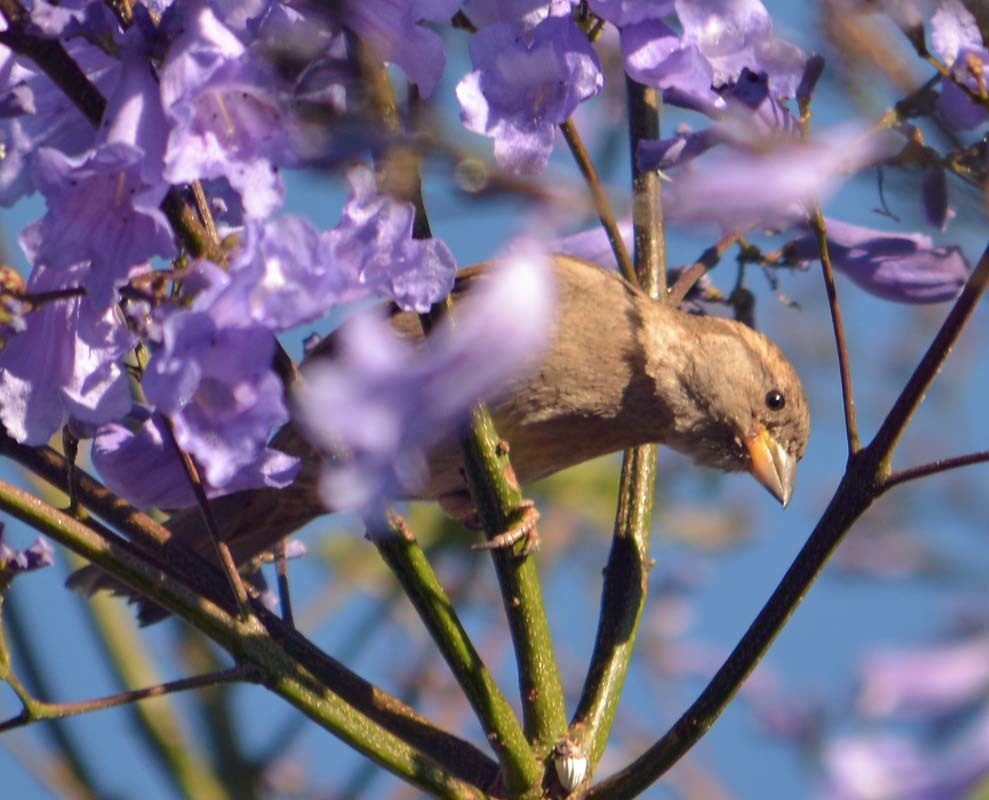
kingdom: Animalia
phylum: Chordata
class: Aves
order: Passeriformes
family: Passeridae
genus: Passer
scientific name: Passer domesticus
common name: House sparrow
